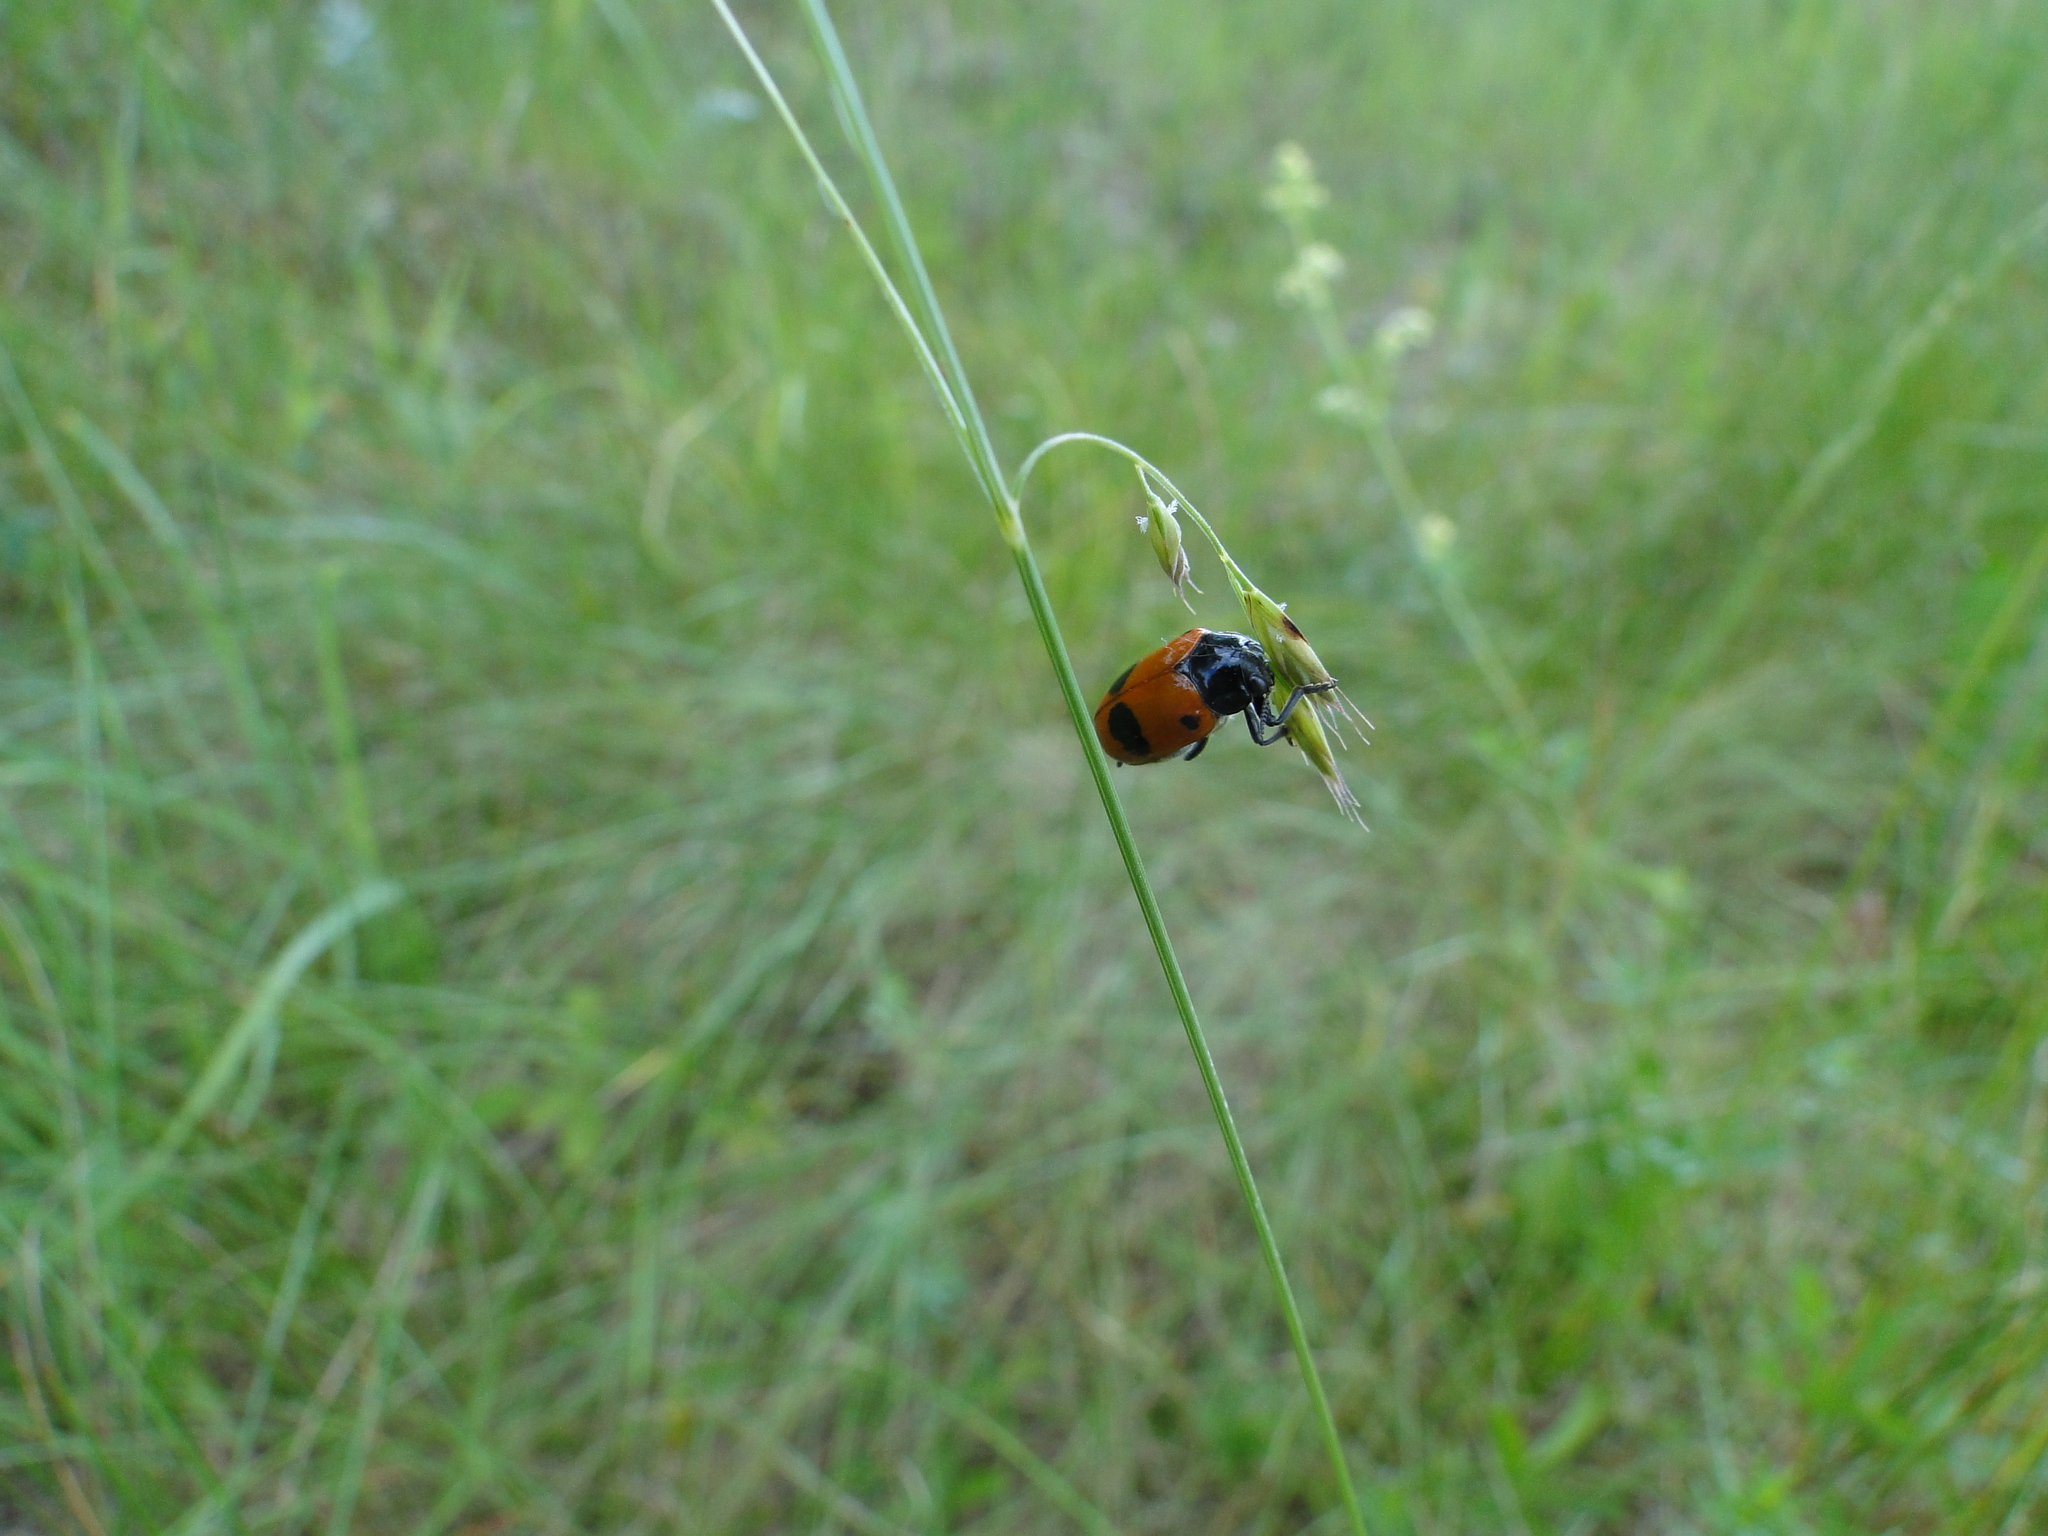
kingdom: Animalia
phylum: Arthropoda
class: Insecta
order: Coleoptera
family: Chrysomelidae
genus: Clytra
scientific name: Clytra laeviuscula
